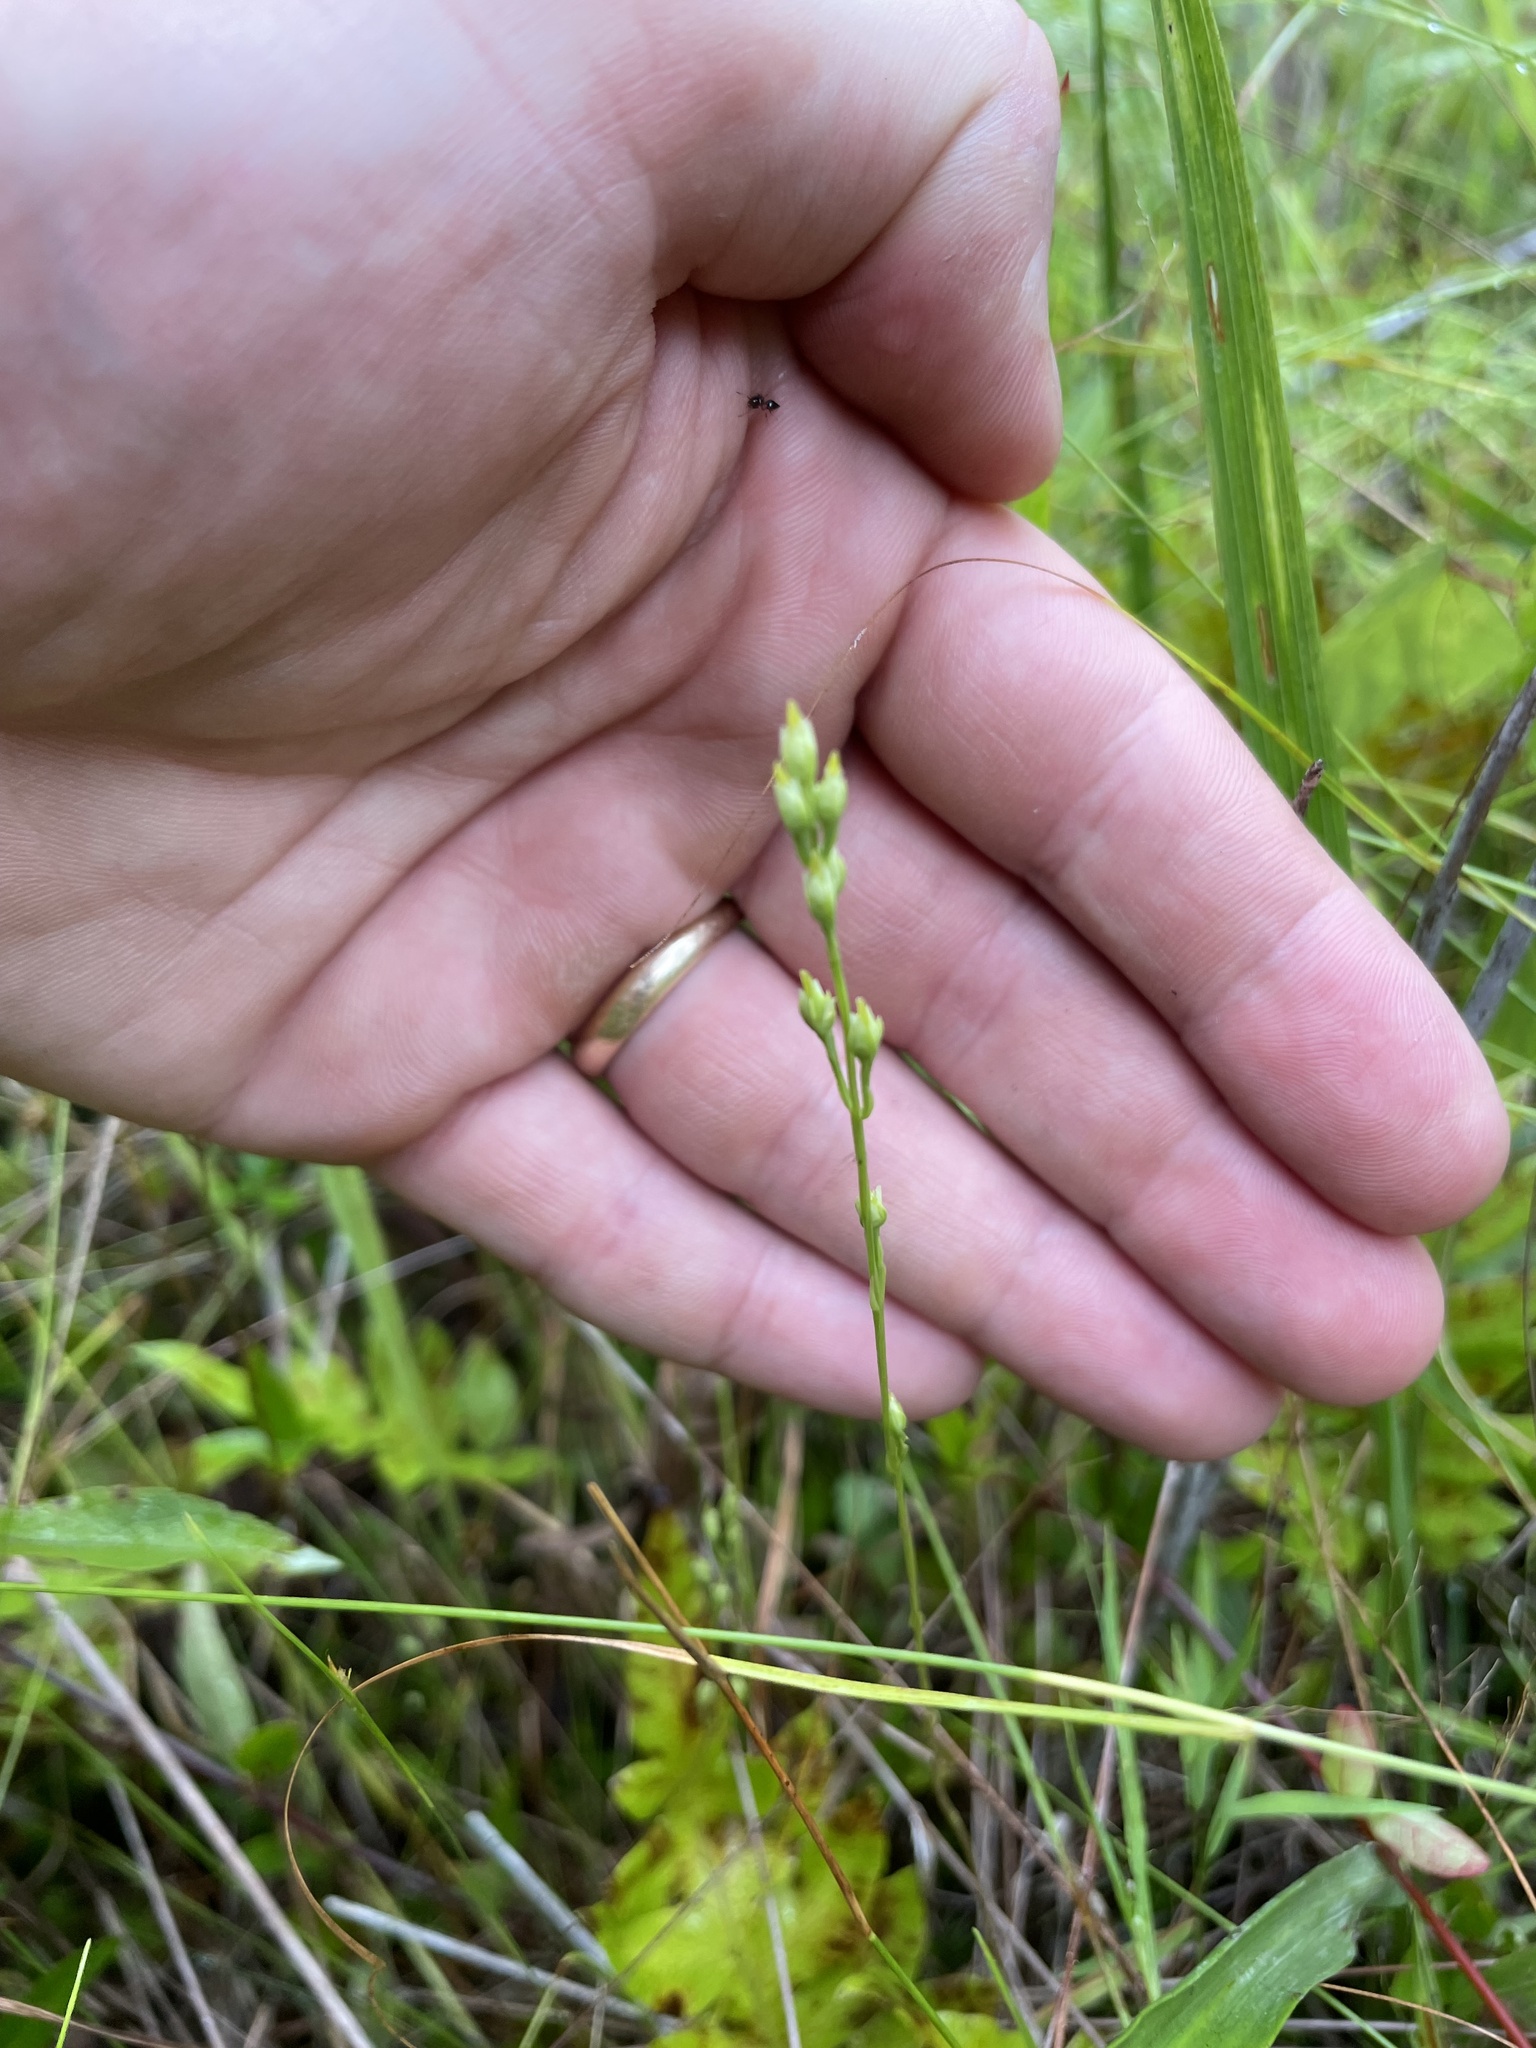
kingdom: Plantae
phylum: Tracheophyta
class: Magnoliopsida
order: Gentianales
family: Gentianaceae
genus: Bartonia
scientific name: Bartonia virginica
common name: Yellow bartonia
